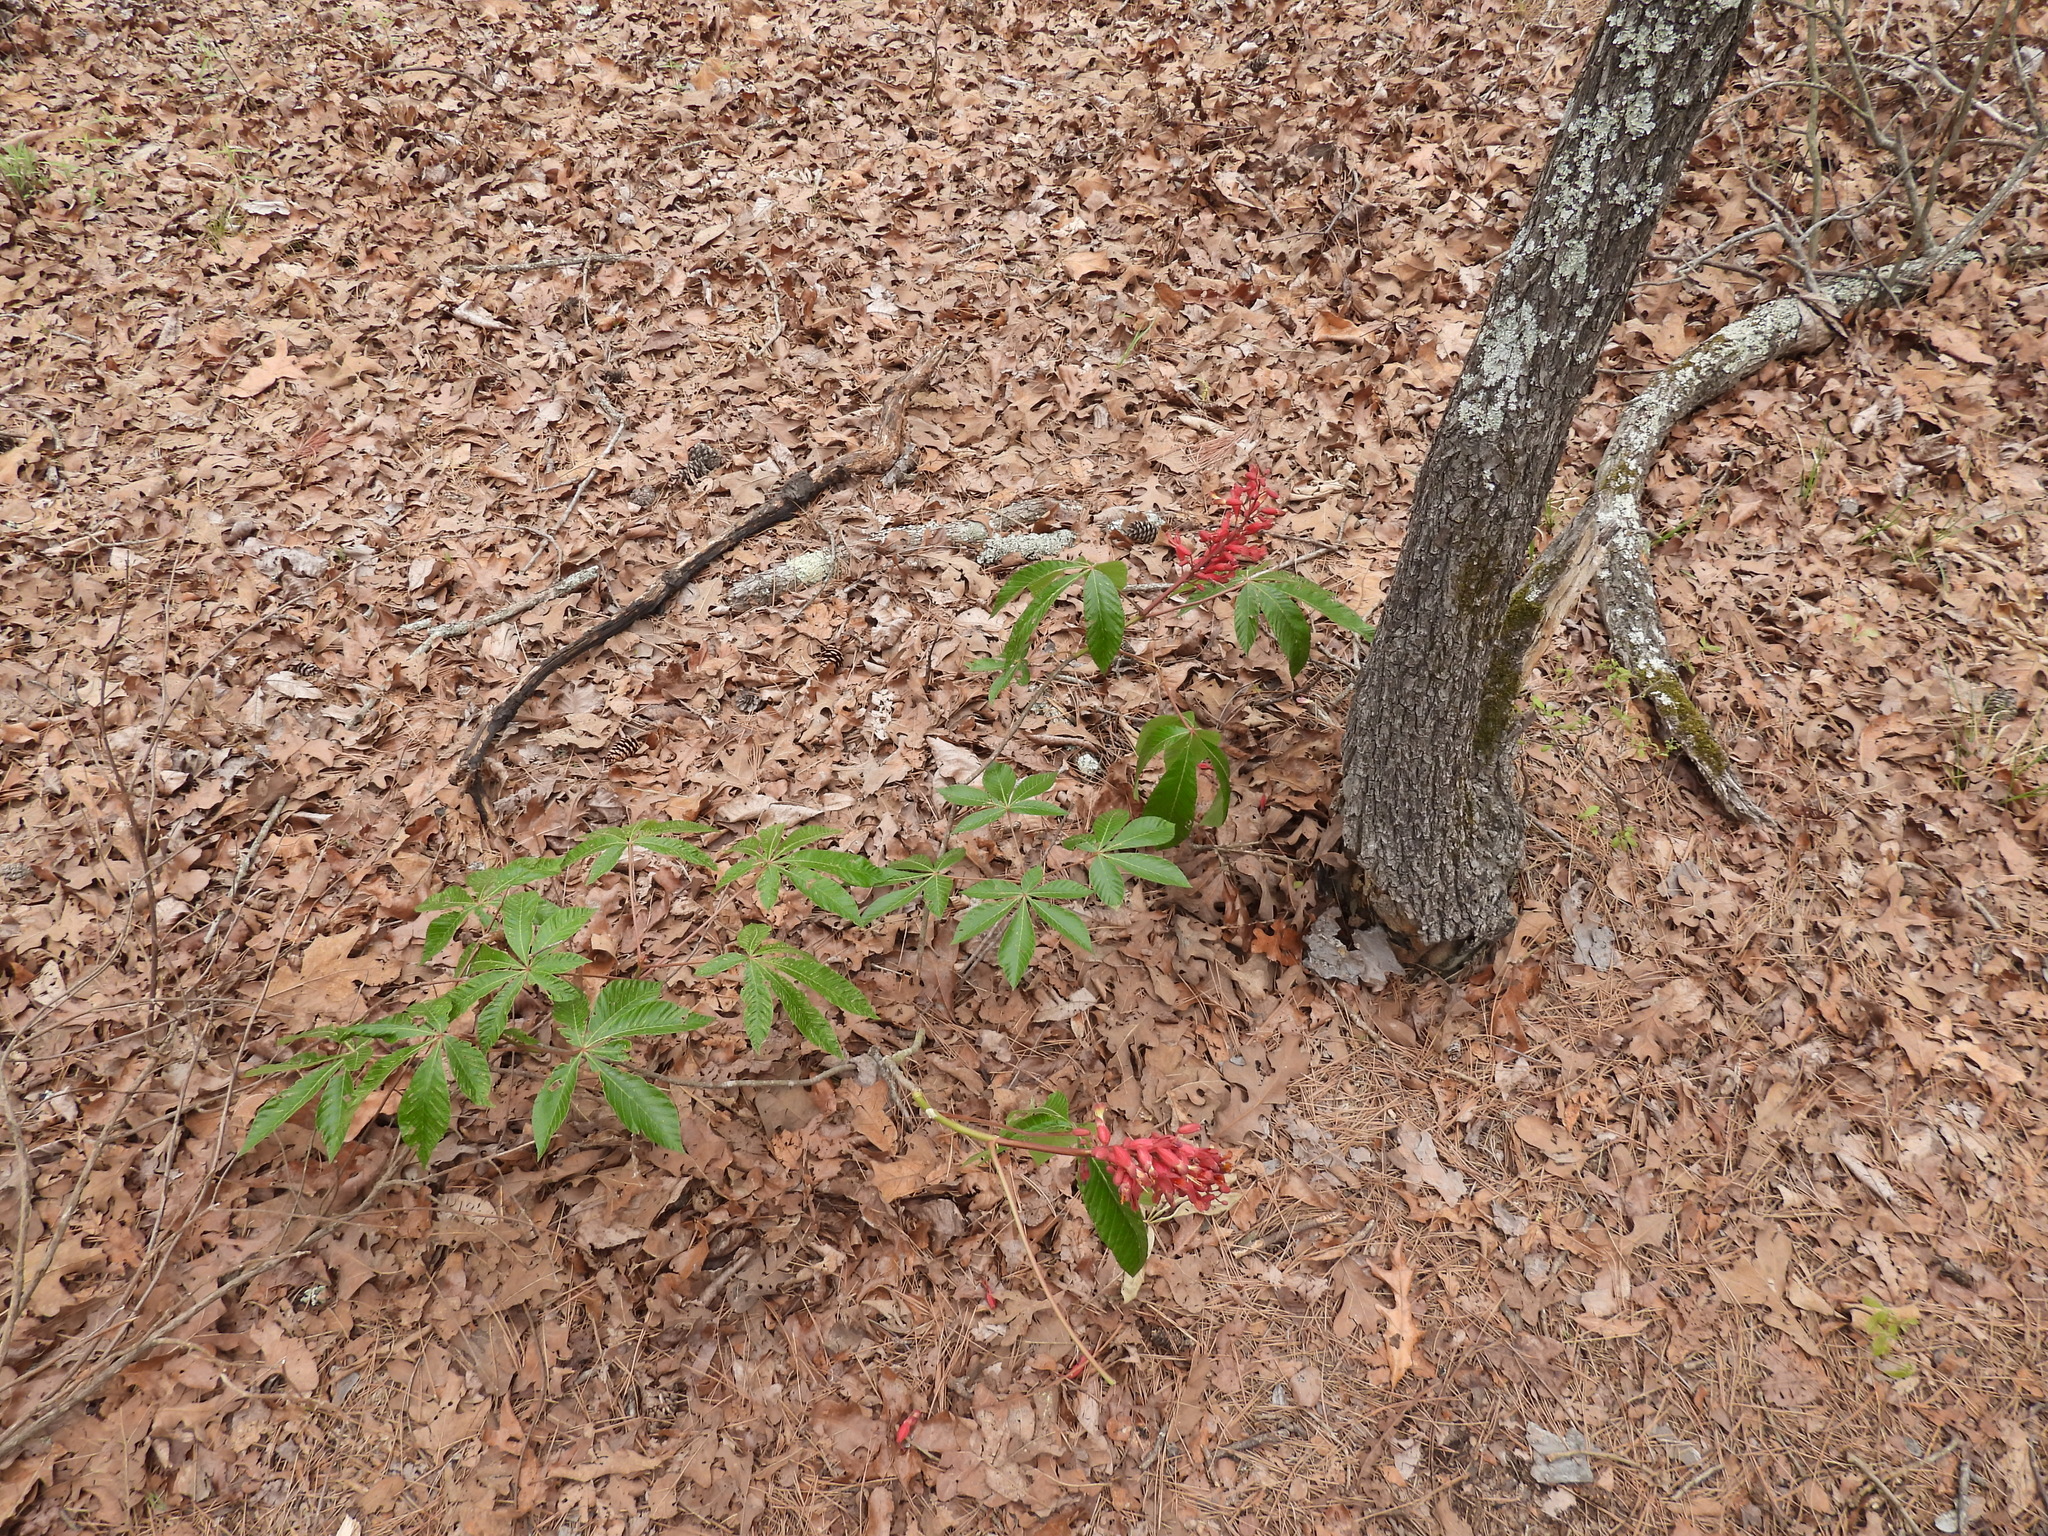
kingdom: Plantae
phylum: Tracheophyta
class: Magnoliopsida
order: Sapindales
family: Sapindaceae
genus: Aesculus
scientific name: Aesculus pavia
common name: Red buckeye
